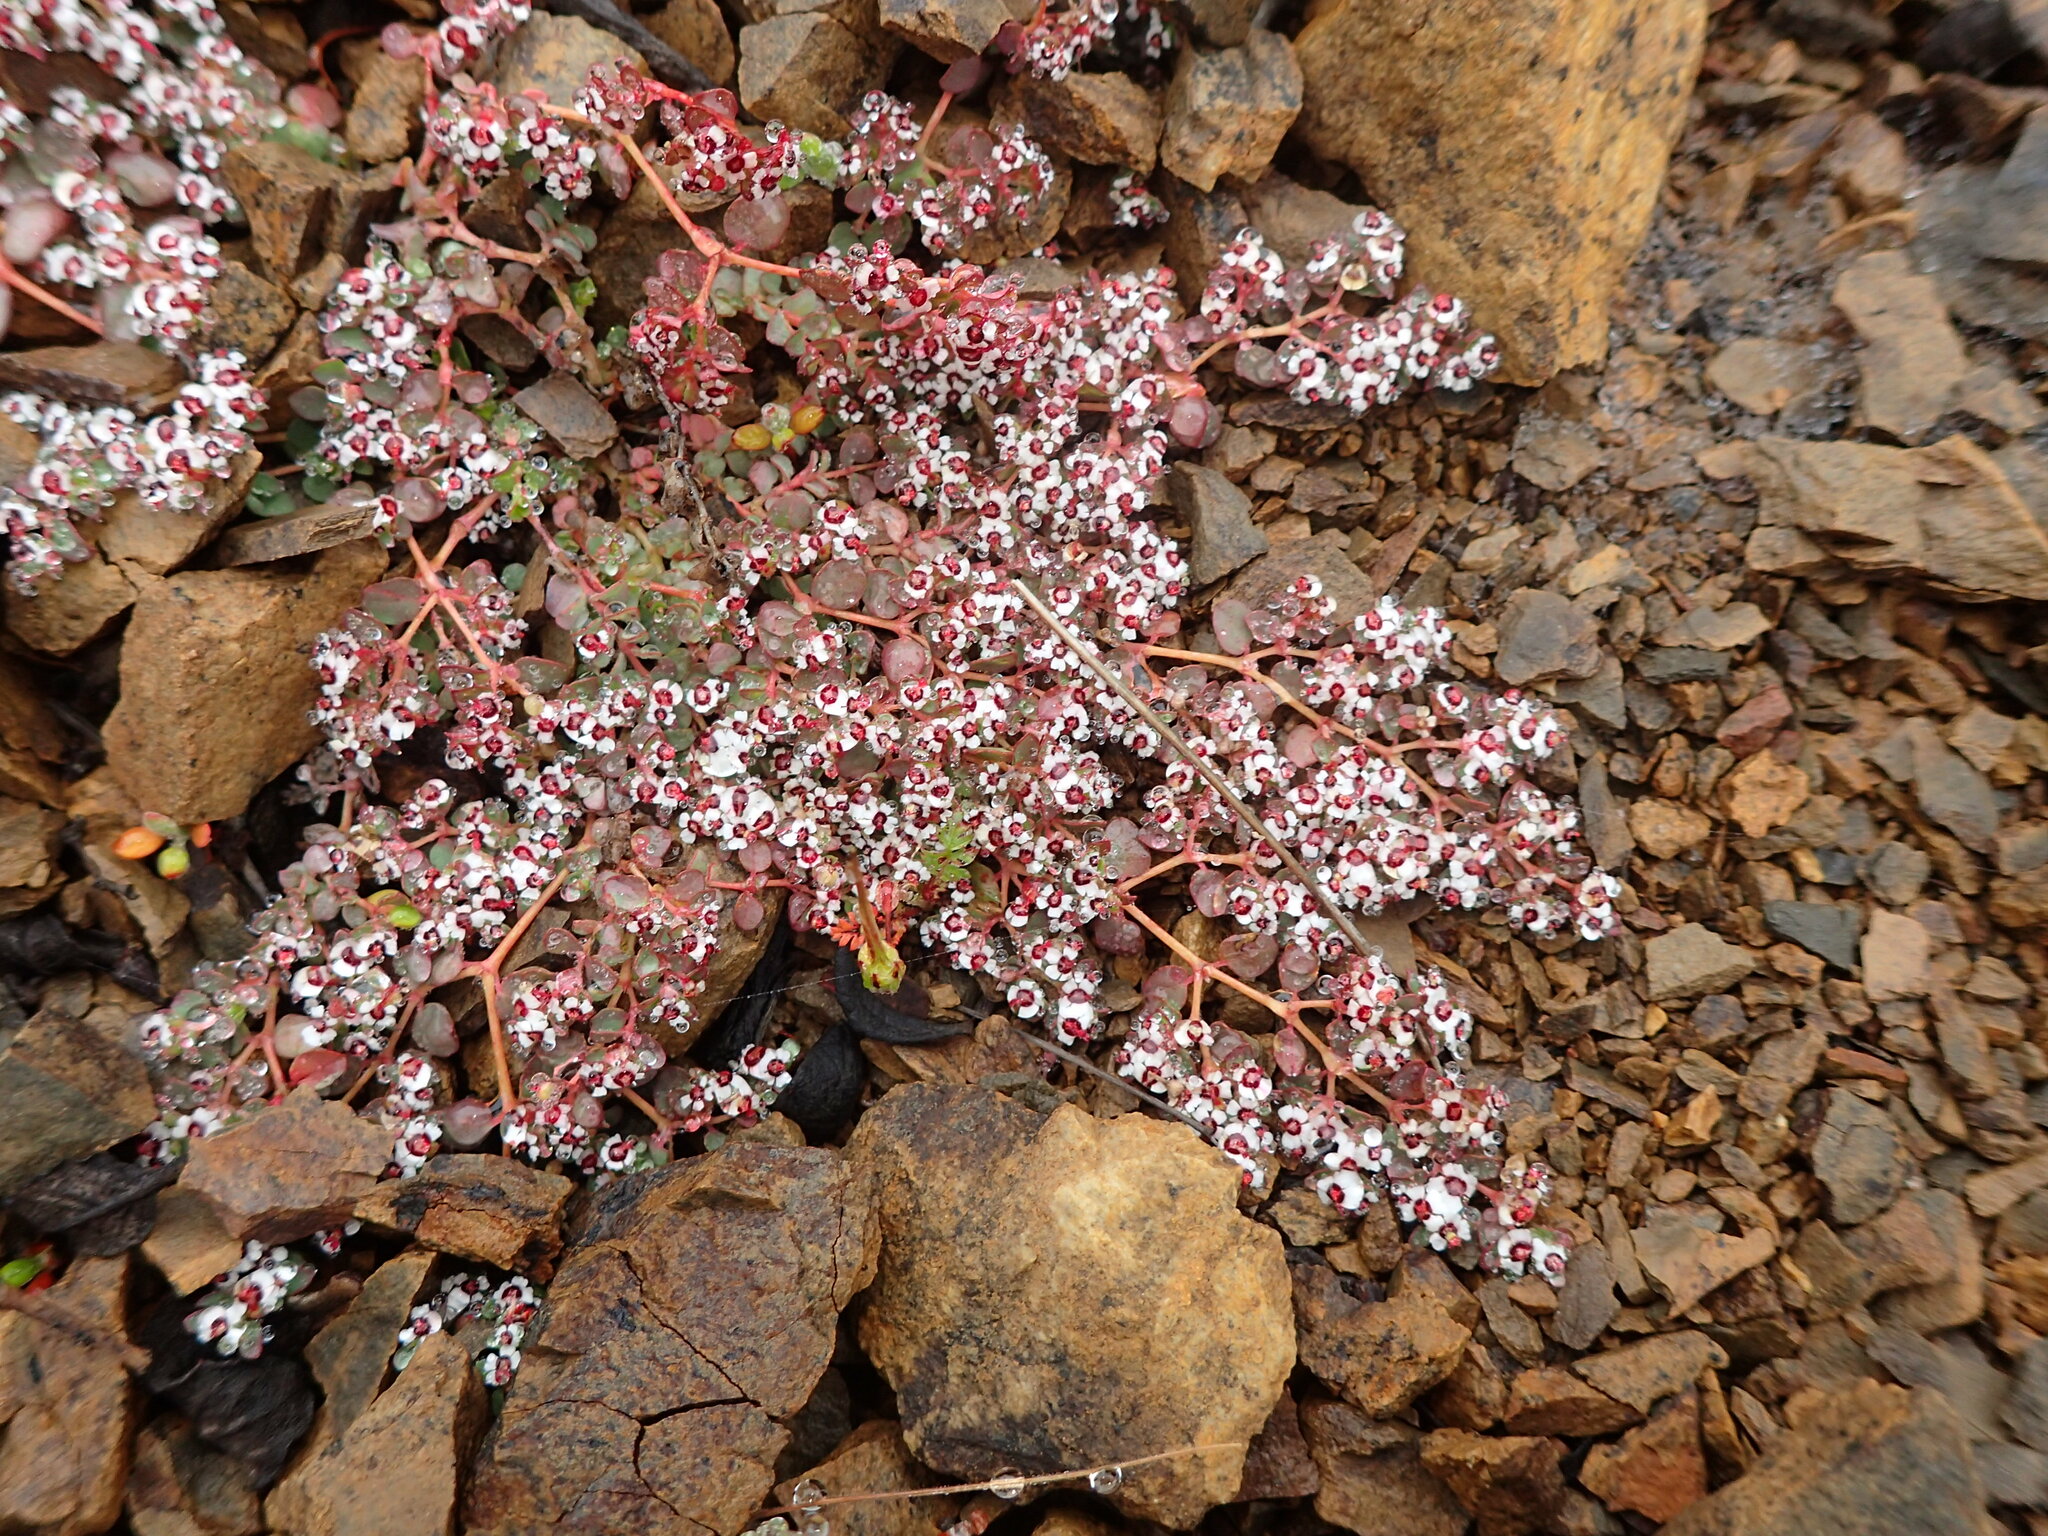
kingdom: Plantae
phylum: Tracheophyta
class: Magnoliopsida
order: Malpighiales
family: Euphorbiaceae
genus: Euphorbia
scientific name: Euphorbia polycarpa
